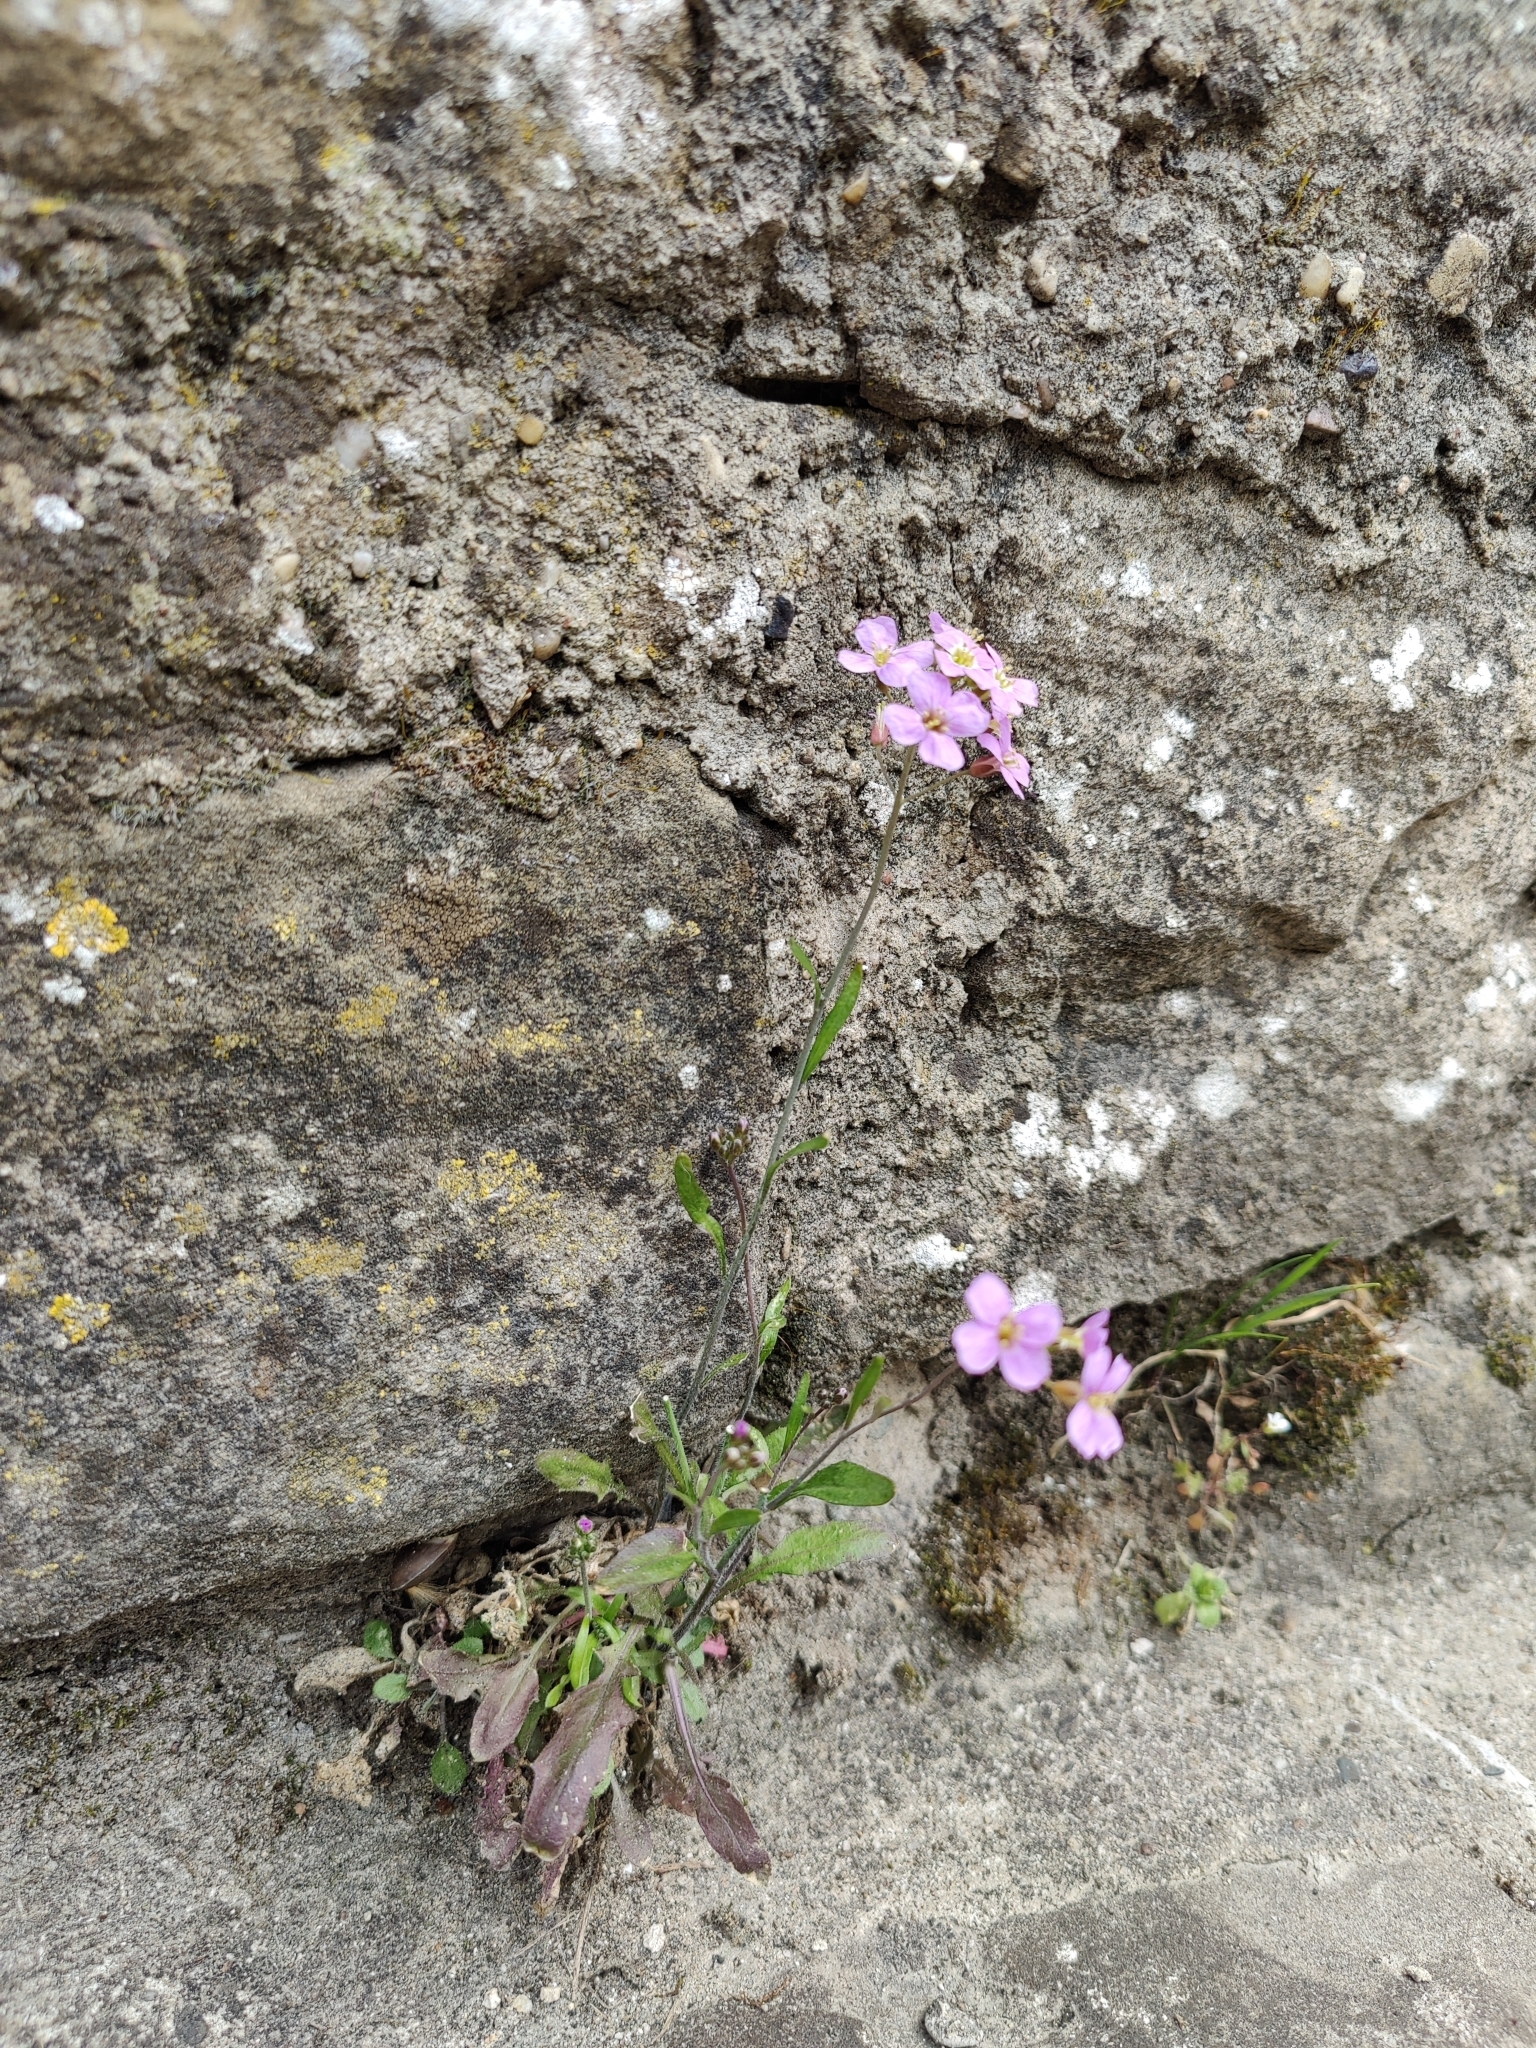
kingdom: Plantae
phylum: Tracheophyta
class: Magnoliopsida
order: Brassicales
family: Brassicaceae
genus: Arabidopsis
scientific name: Arabidopsis arenosa
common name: Sand rock-cress
